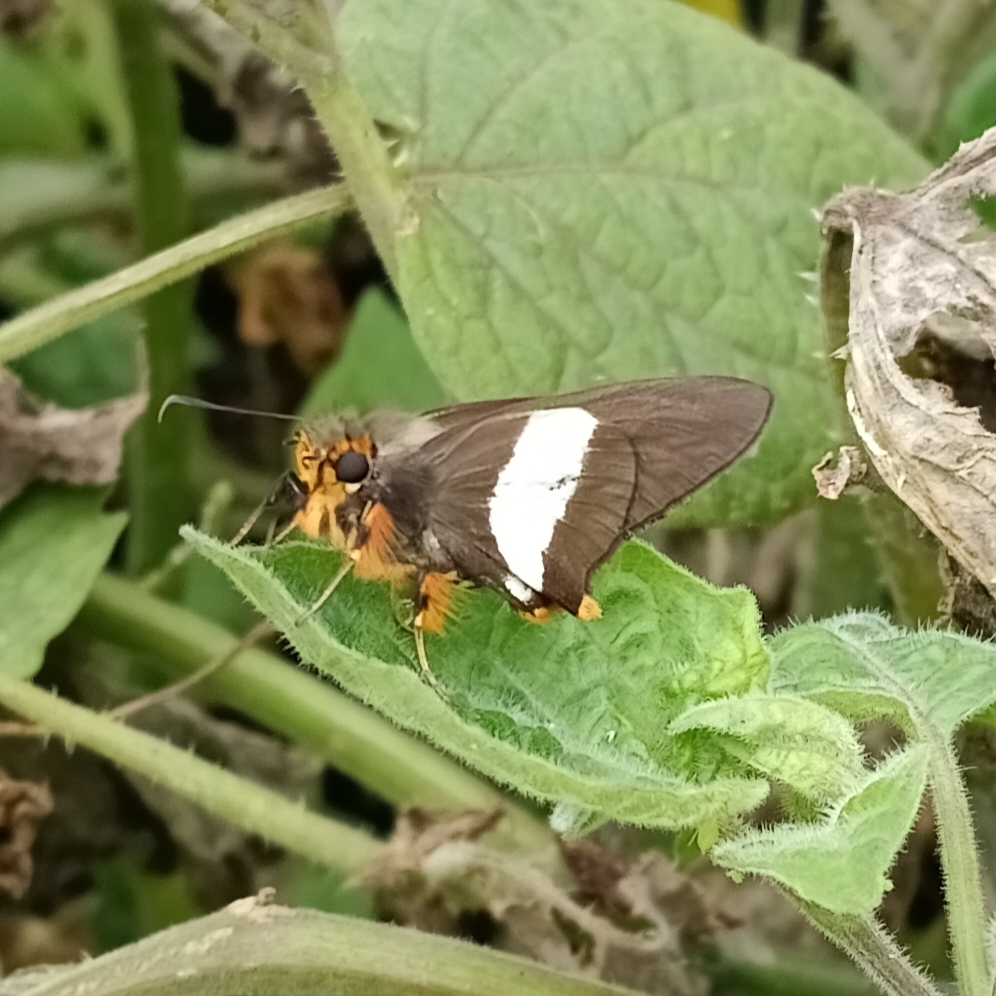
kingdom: Animalia
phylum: Arthropoda
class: Insecta
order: Lepidoptera
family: Hesperiidae
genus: Coeliades
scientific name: Coeliades forestan
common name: Striped policeman
